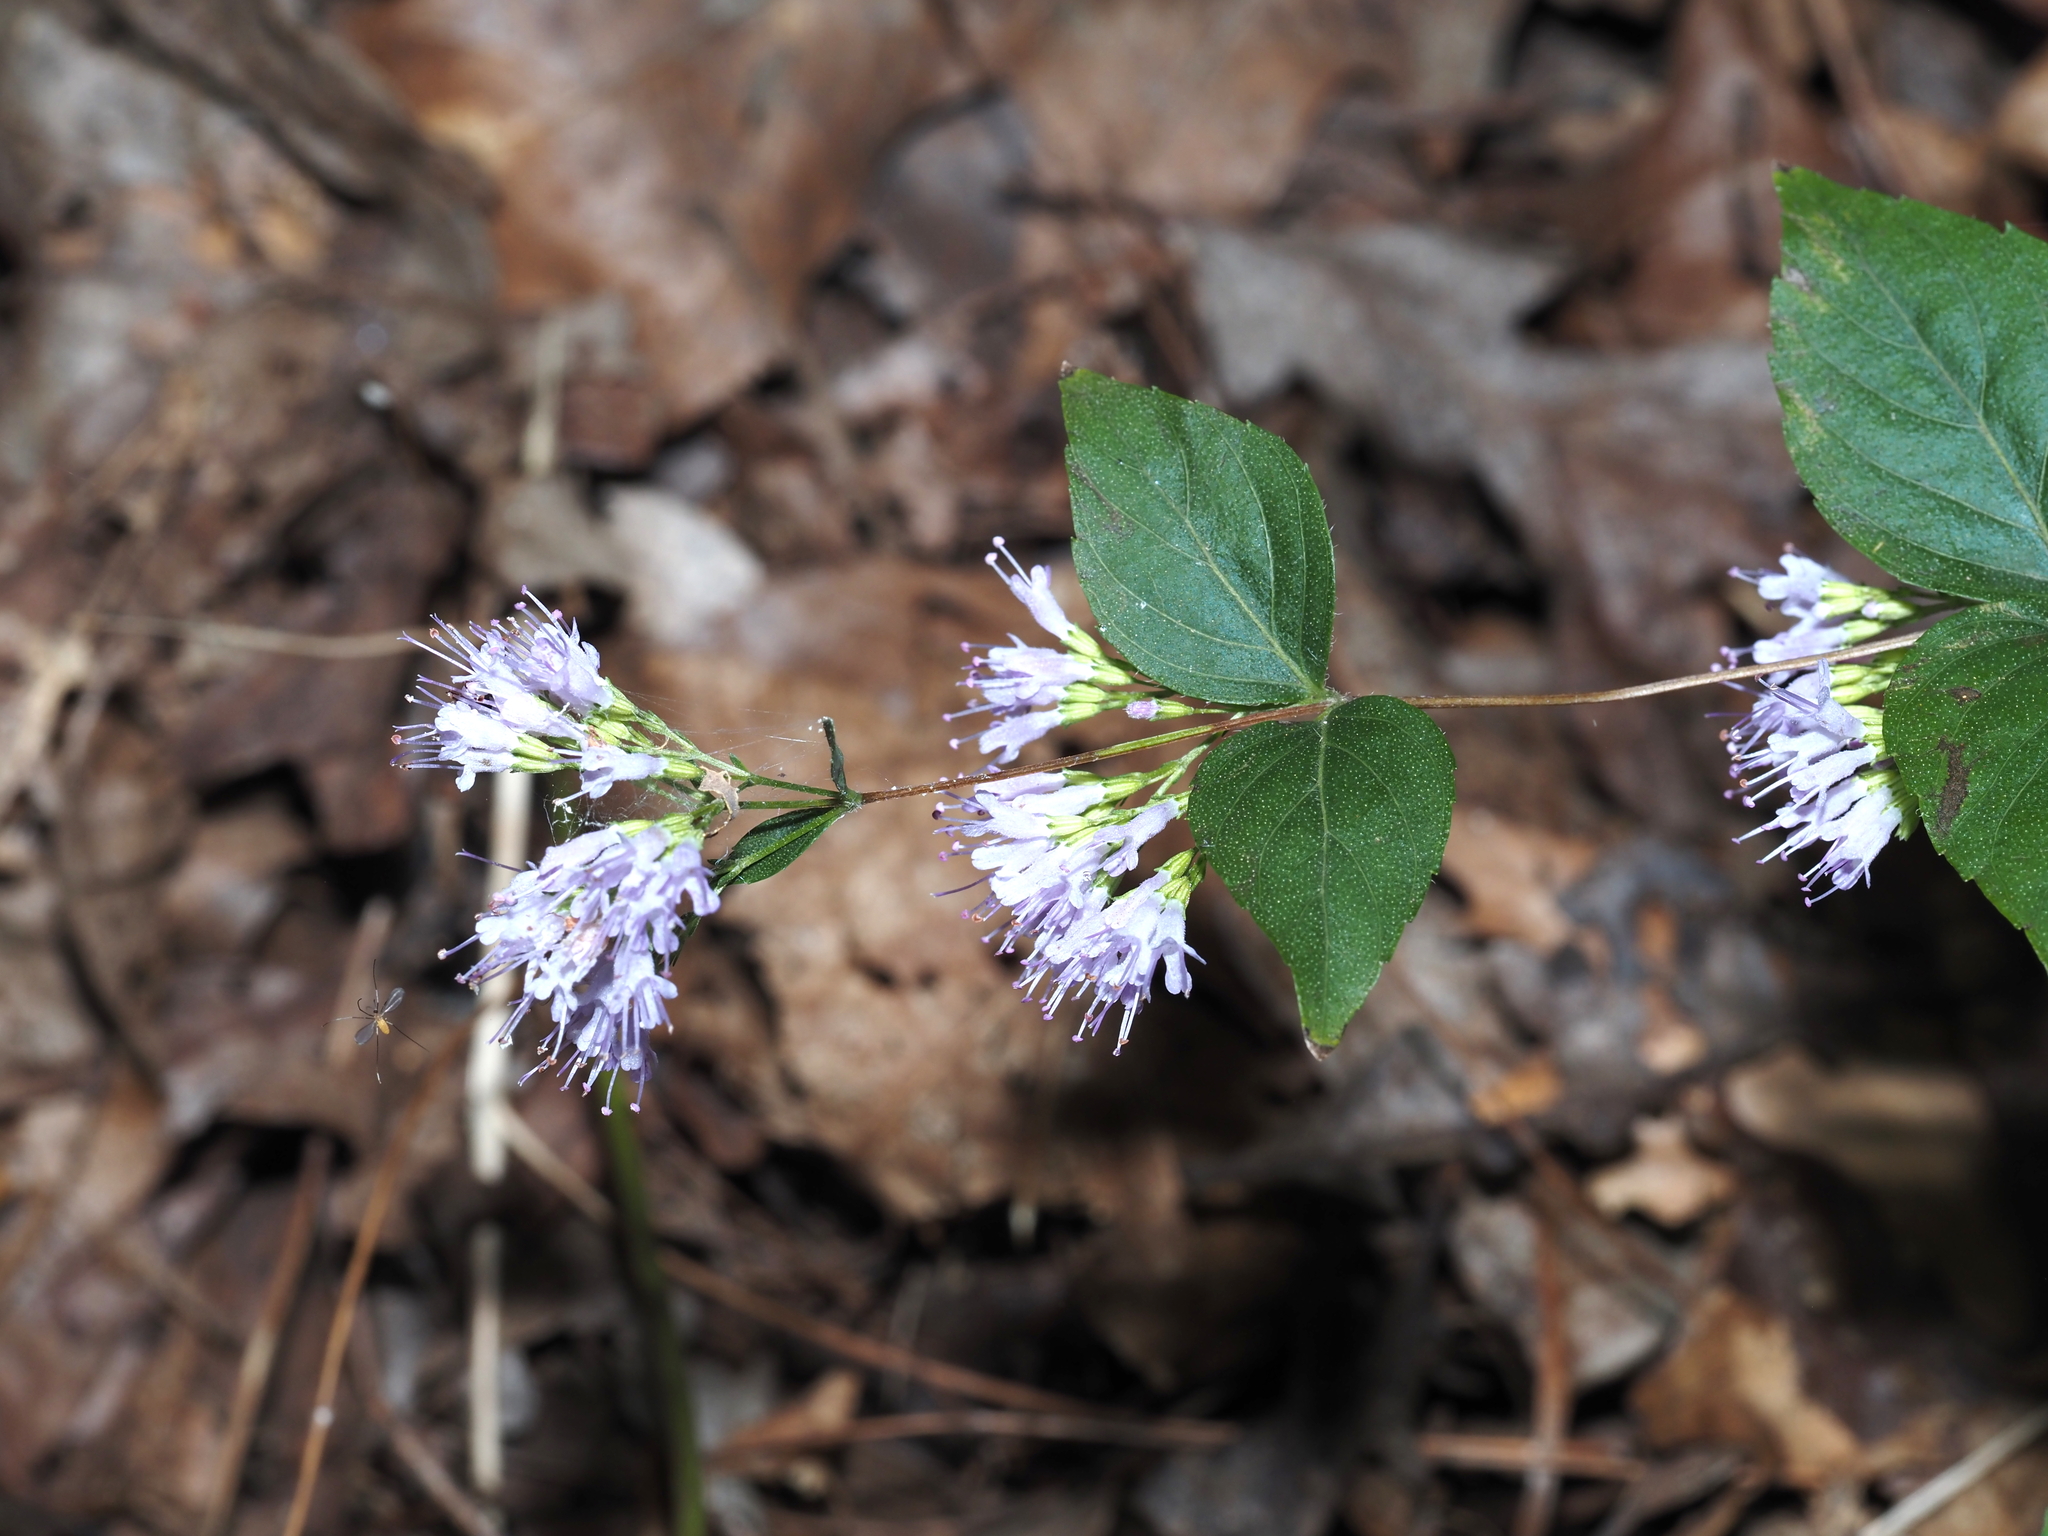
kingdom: Plantae
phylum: Tracheophyta
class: Magnoliopsida
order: Lamiales
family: Lamiaceae
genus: Cunila
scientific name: Cunila origanoides
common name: American dittany
